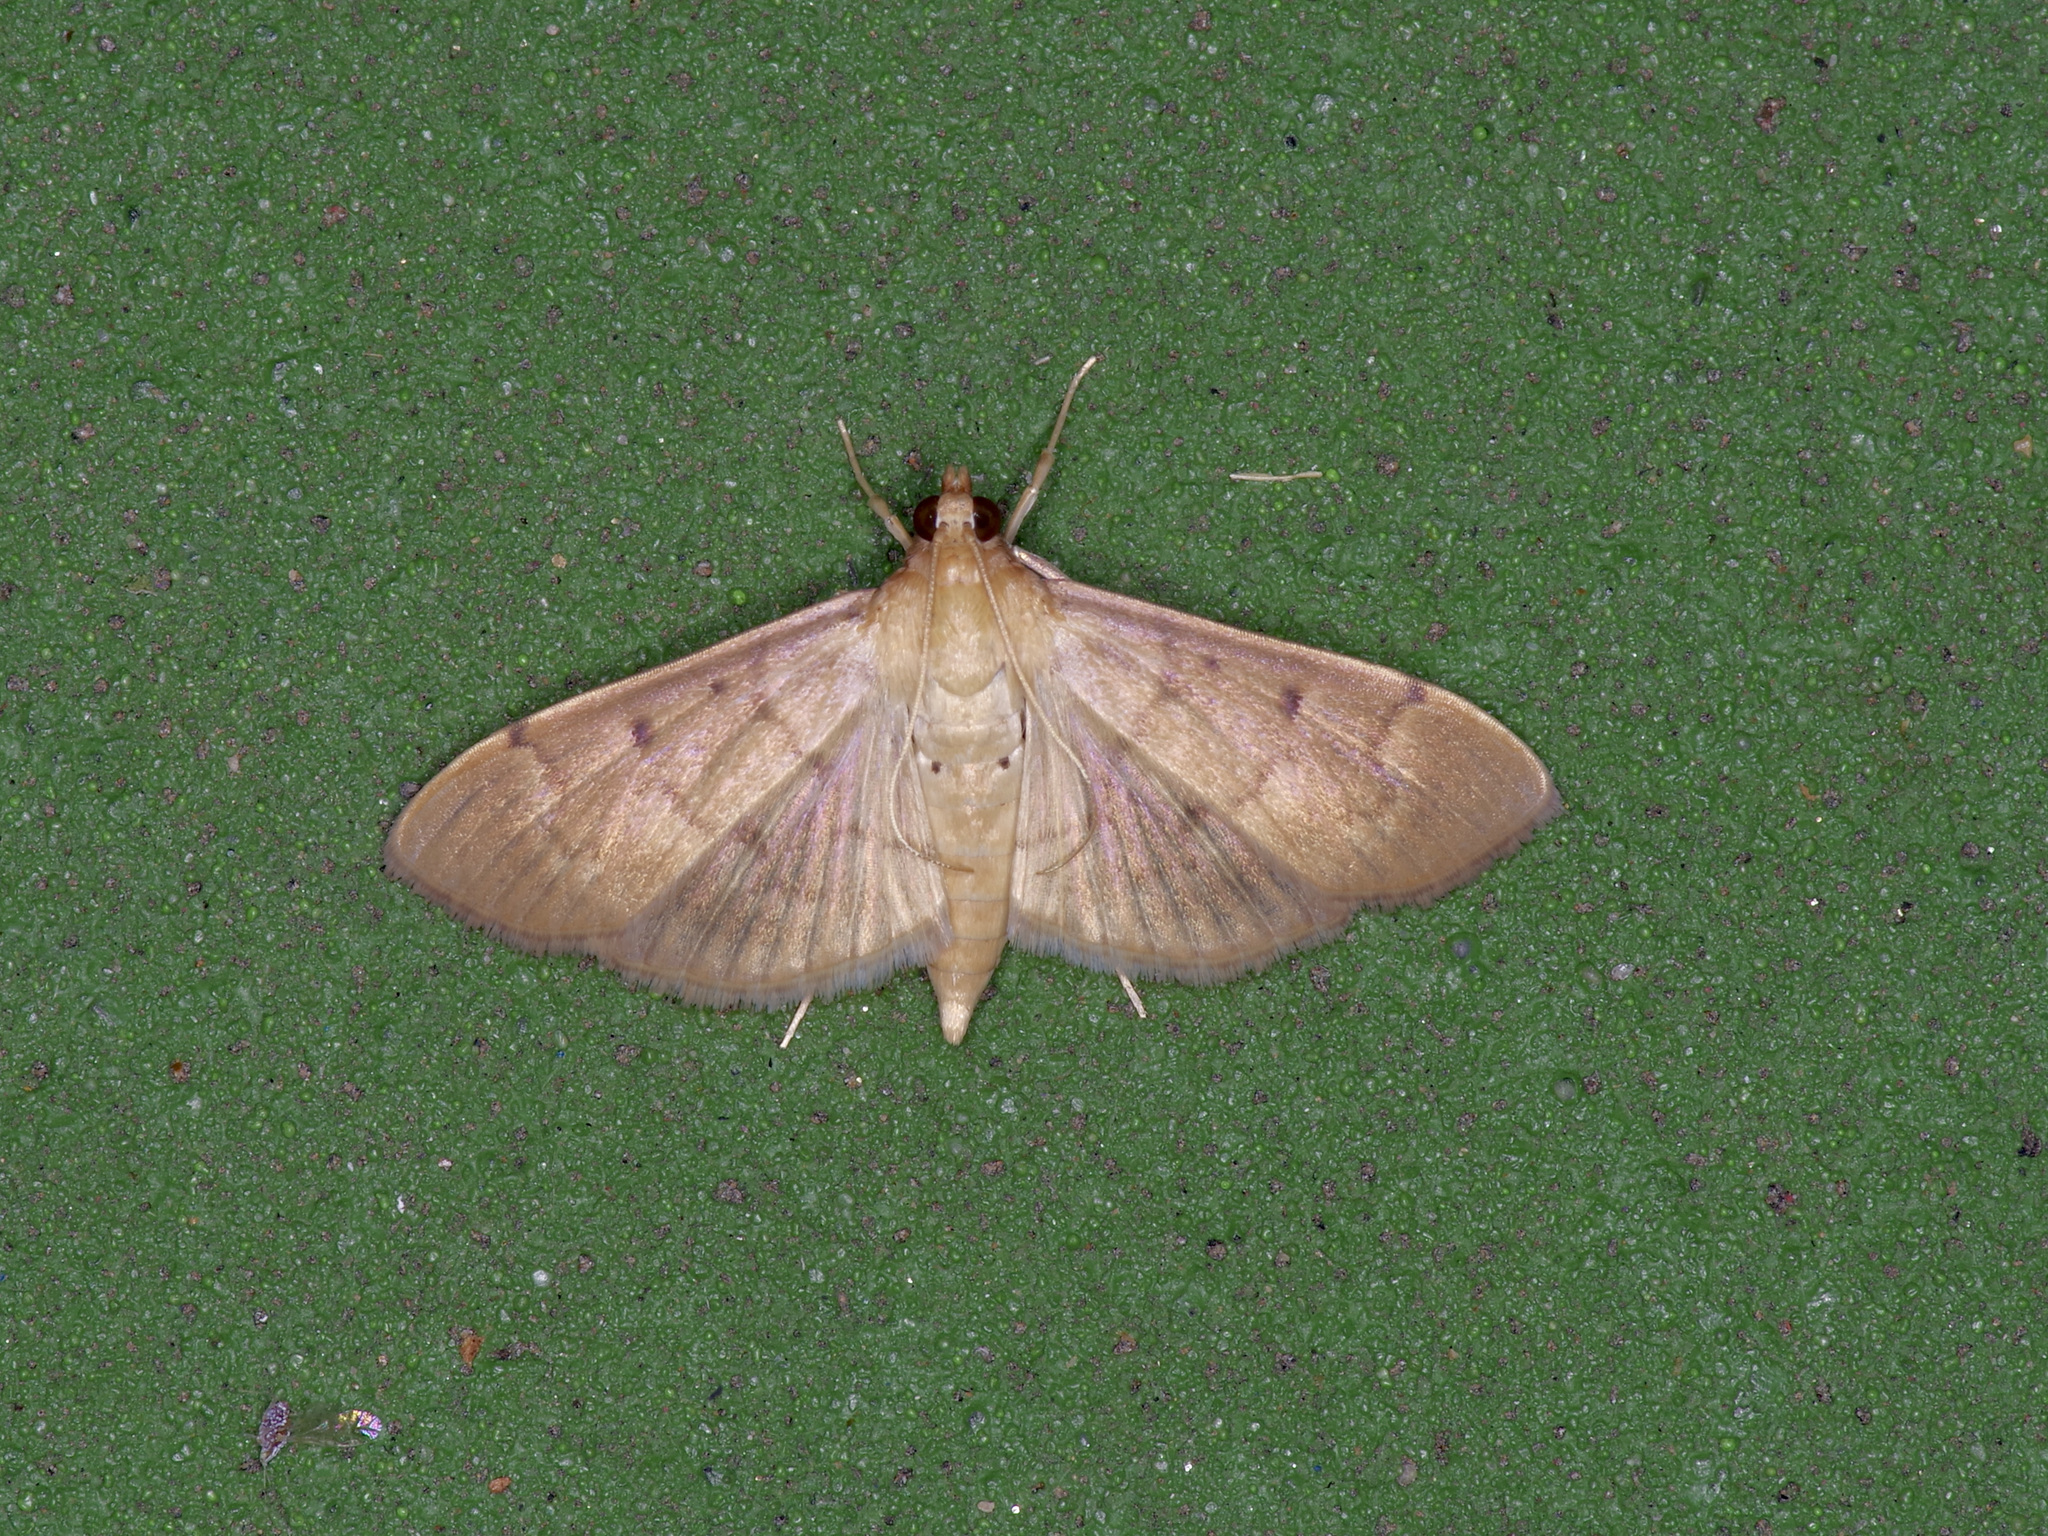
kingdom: Animalia
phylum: Arthropoda
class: Insecta
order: Lepidoptera
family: Crambidae
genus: Herpetogramma
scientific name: Herpetogramma bipunctalis
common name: Southern beet webworm
